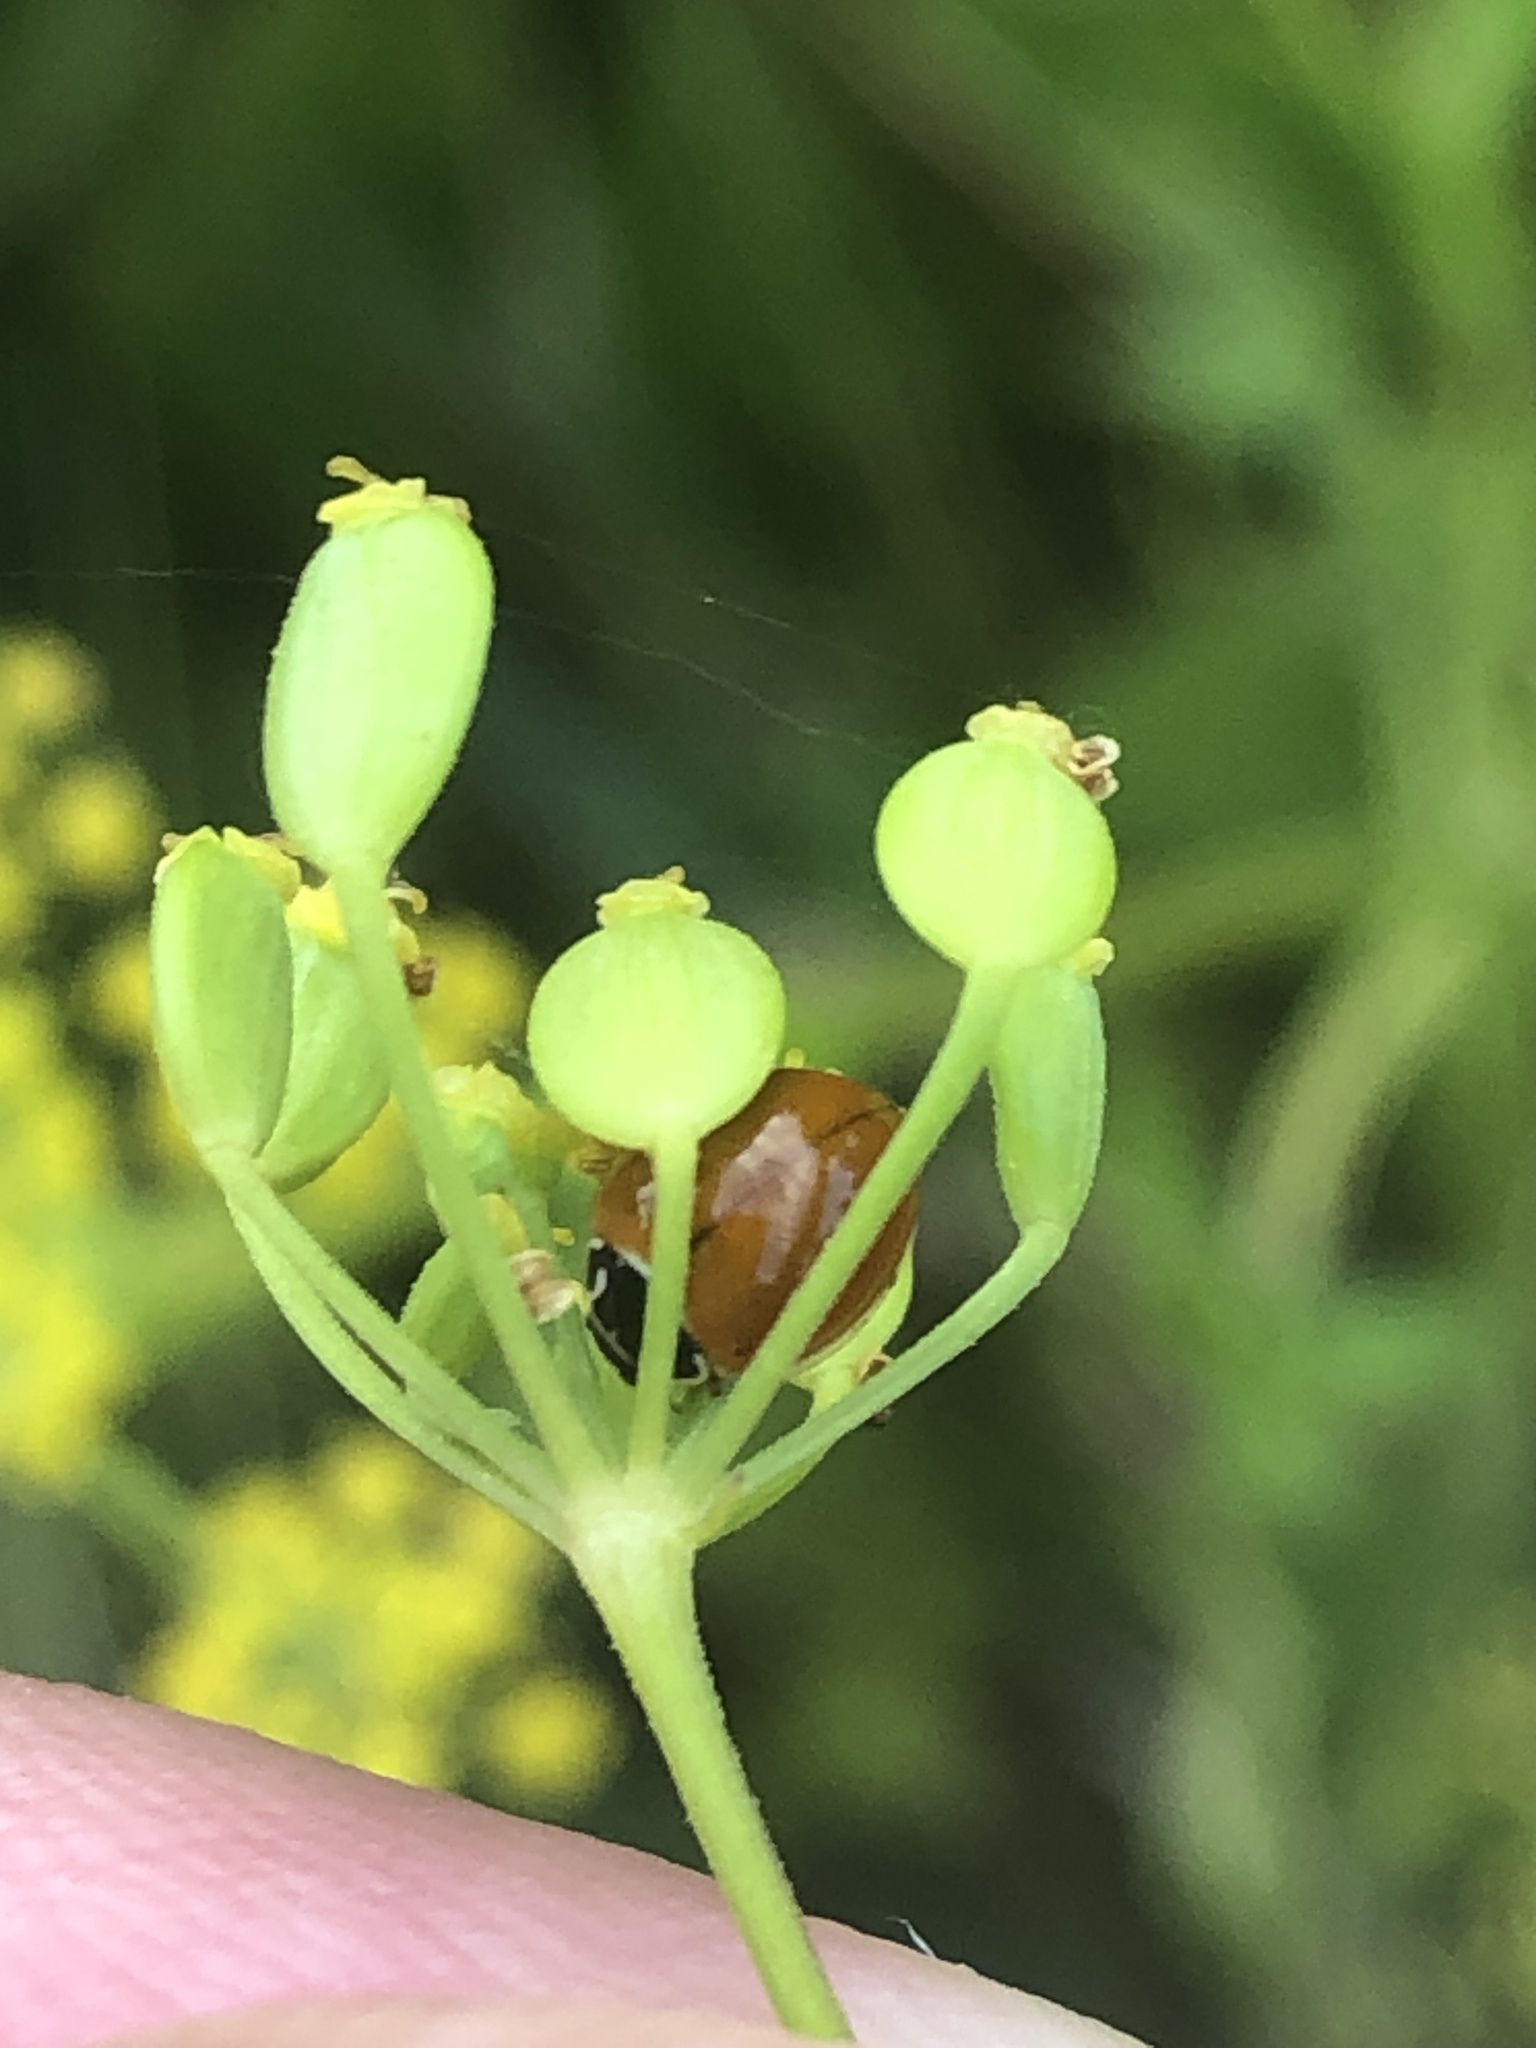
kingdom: Animalia
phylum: Arthropoda
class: Insecta
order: Coleoptera
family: Coccinellidae
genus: Cycloneda
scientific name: Cycloneda munda
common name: Polished lady beetle
